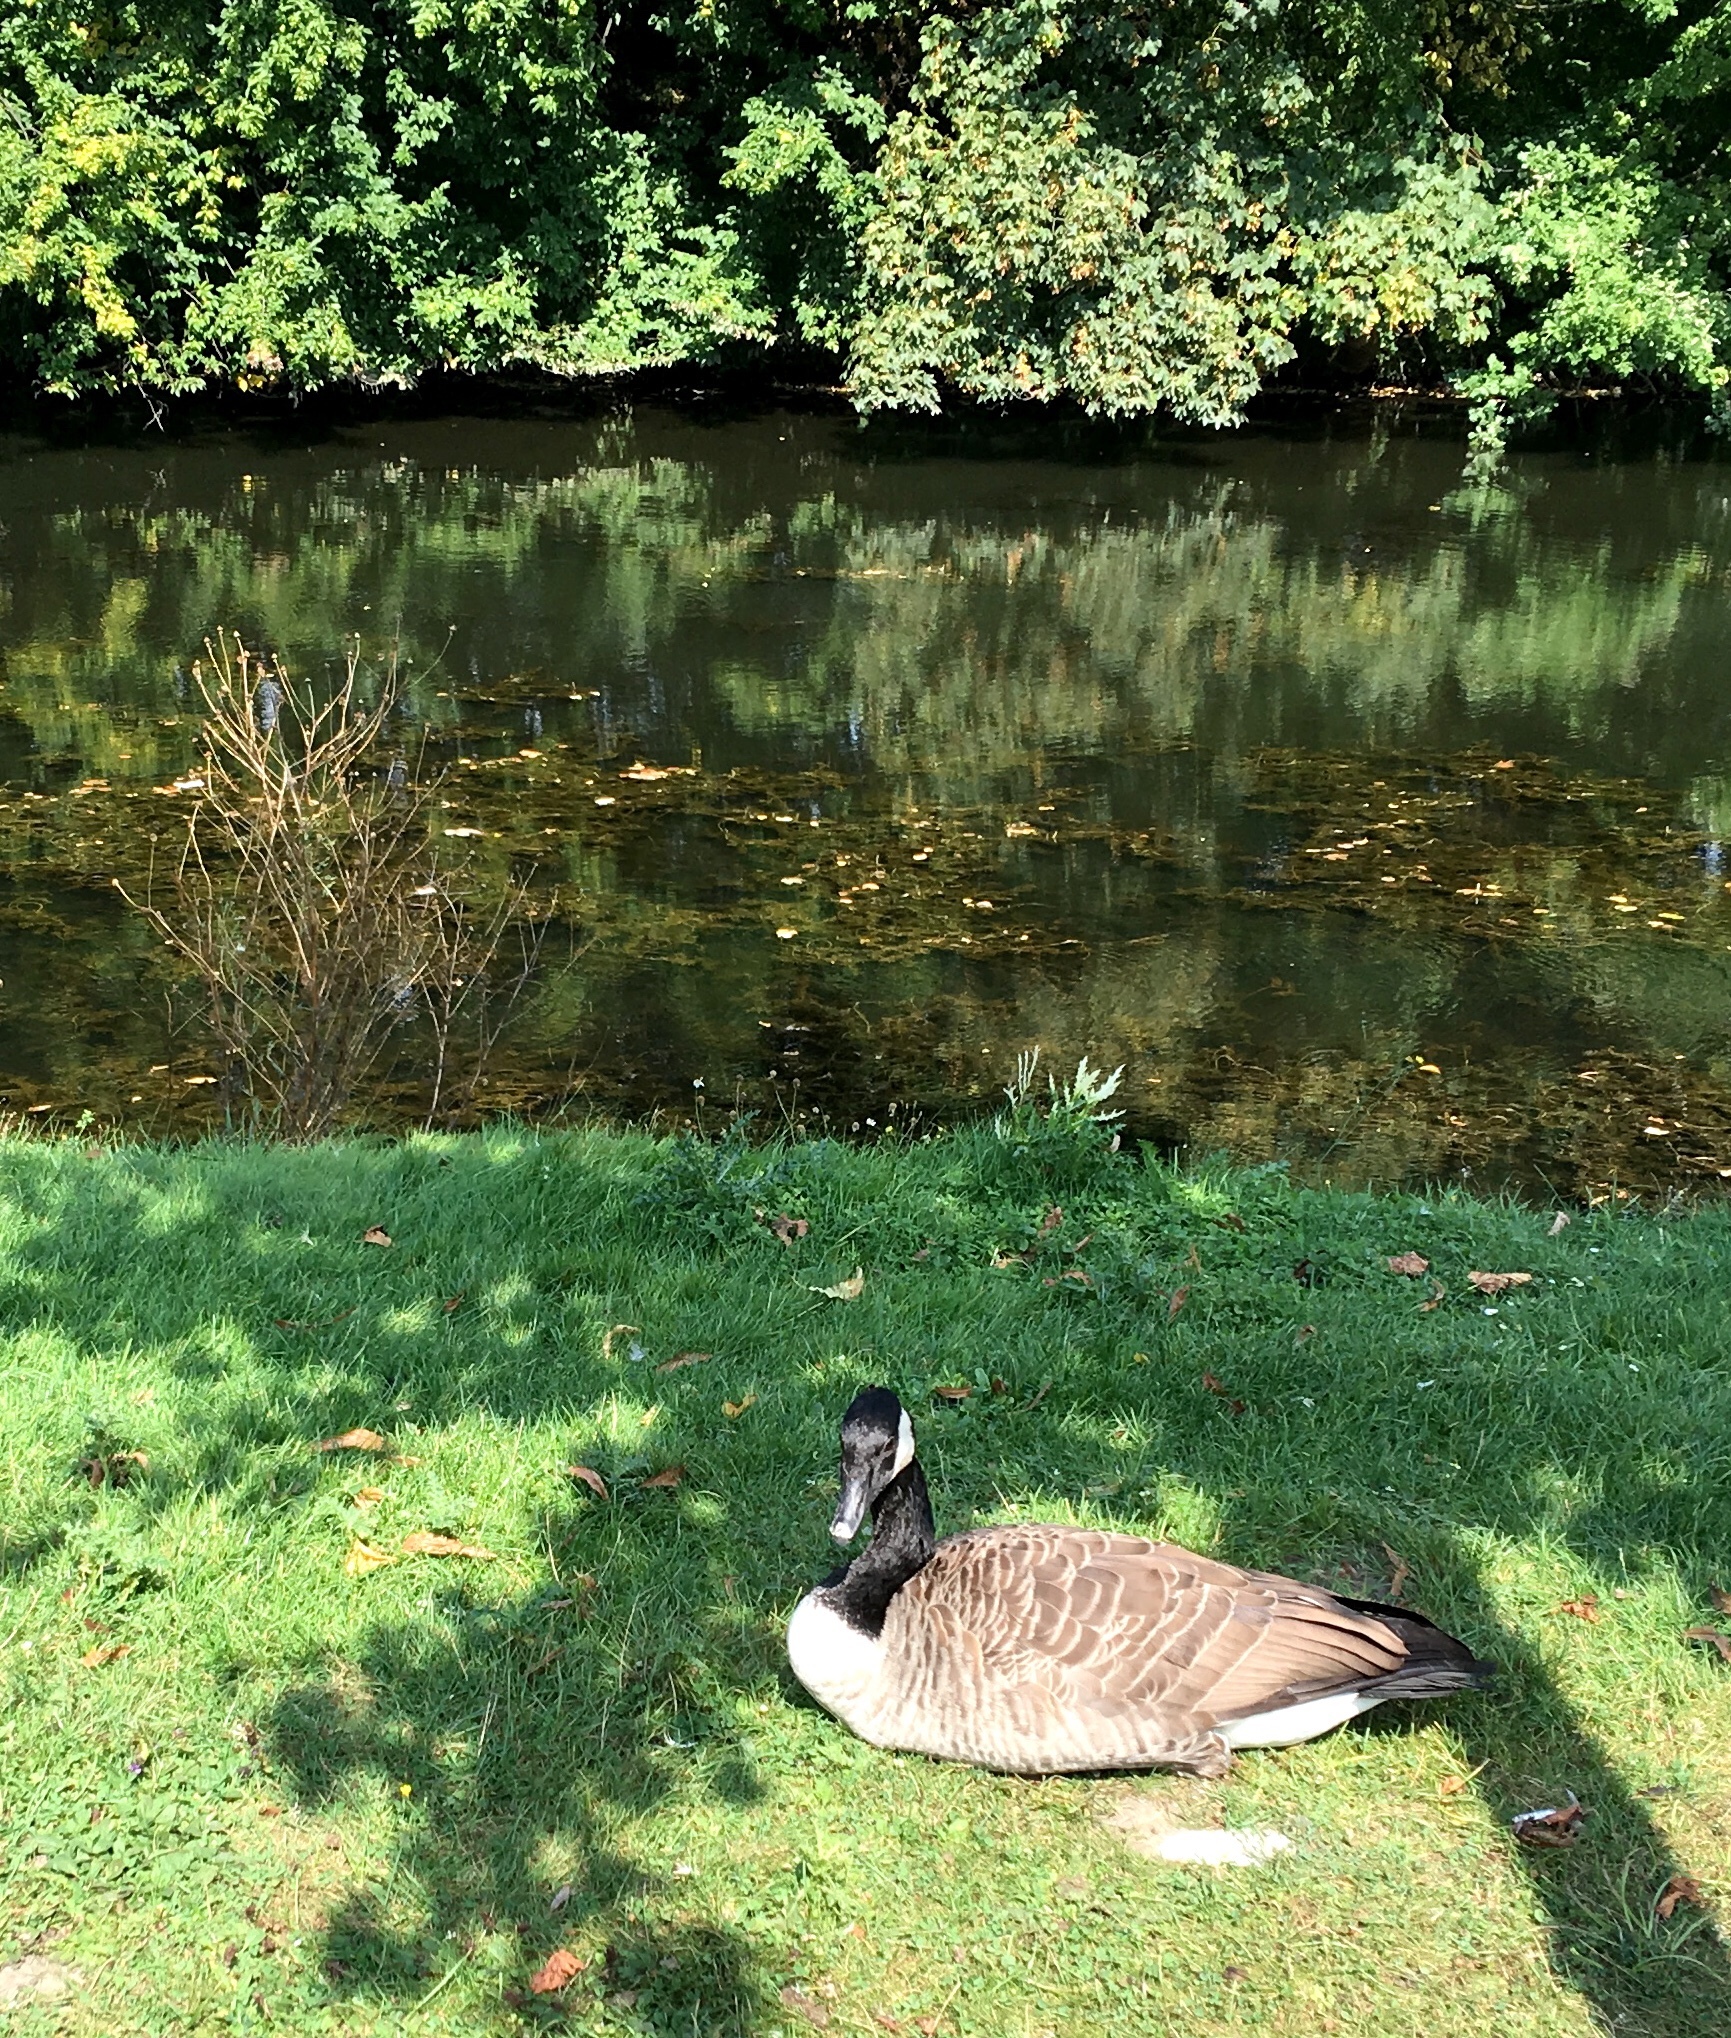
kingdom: Animalia
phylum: Chordata
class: Aves
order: Anseriformes
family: Anatidae
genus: Branta
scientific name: Branta canadensis
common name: Canada goose
